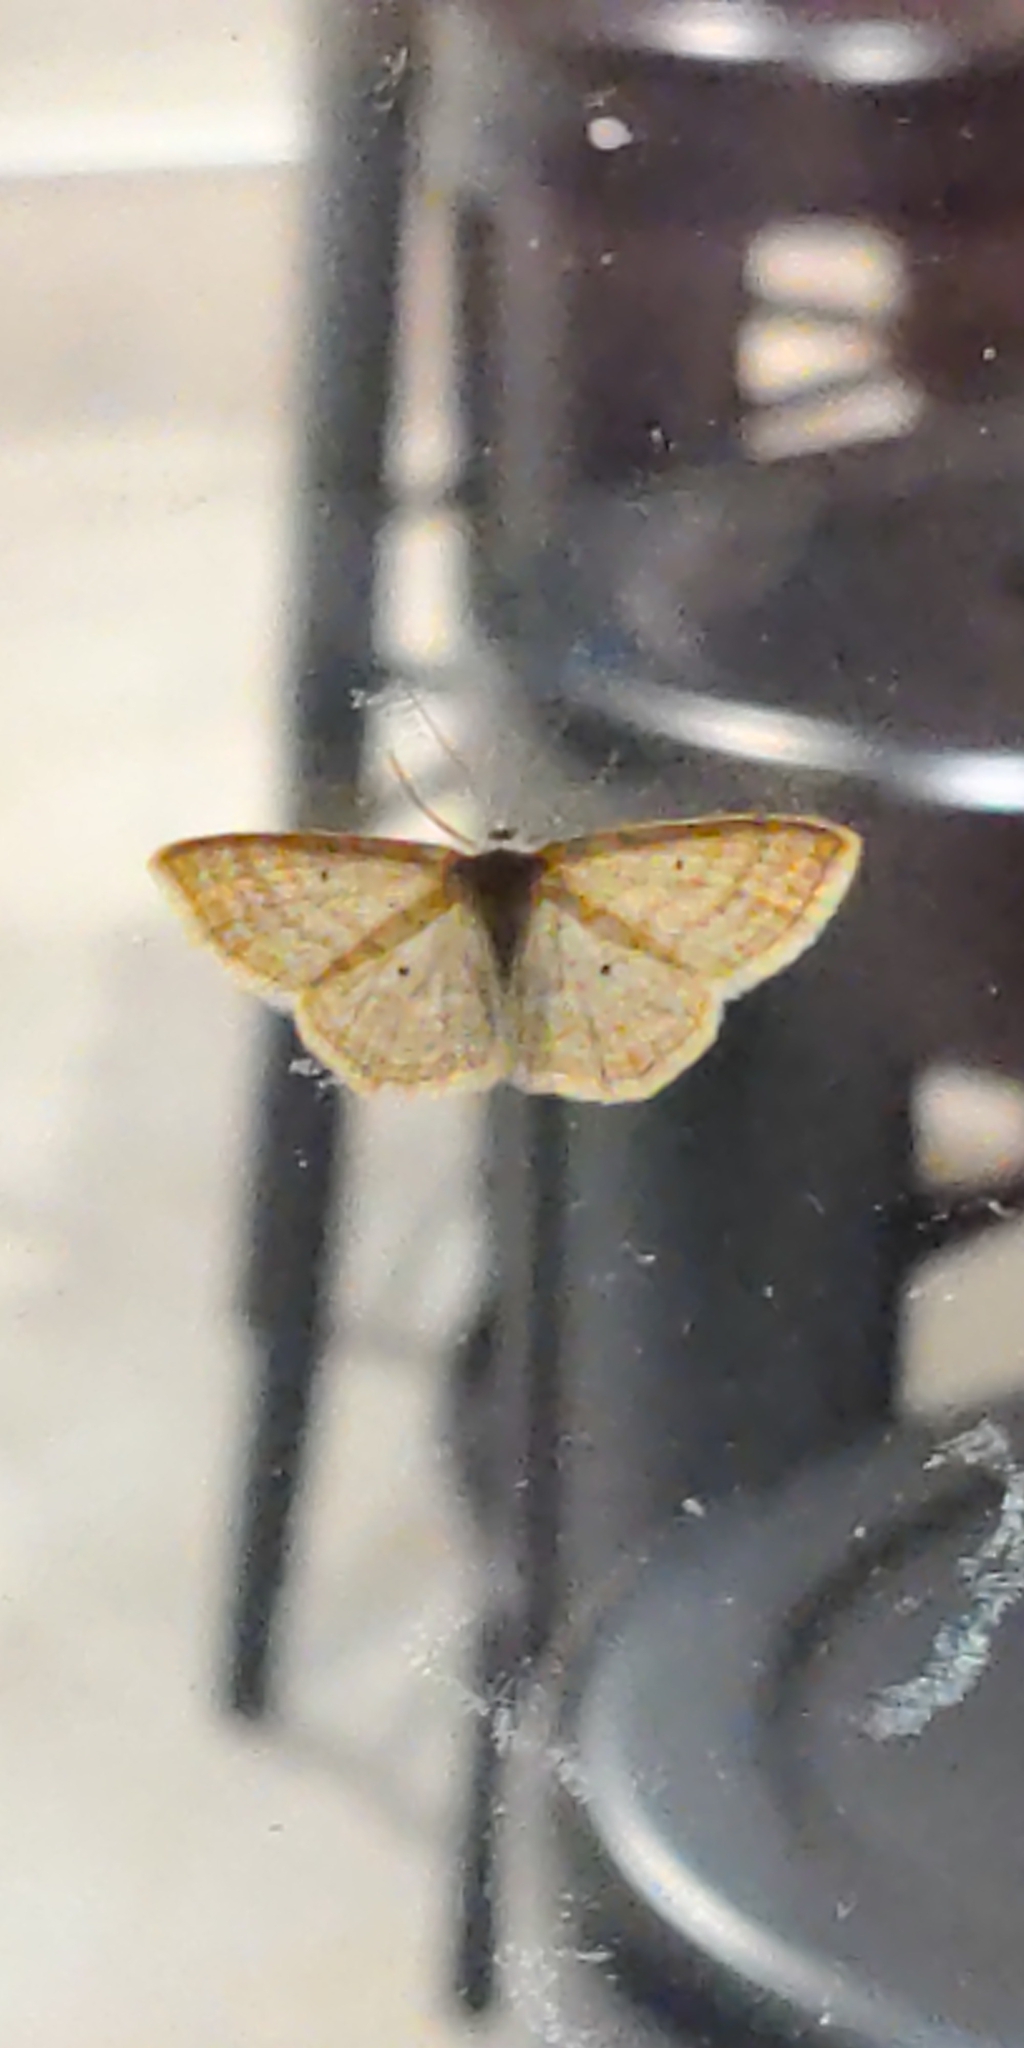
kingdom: Animalia
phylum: Arthropoda
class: Insecta
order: Lepidoptera
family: Geometridae
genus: Scopula
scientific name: Scopula immutata
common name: Lesser cream wave
